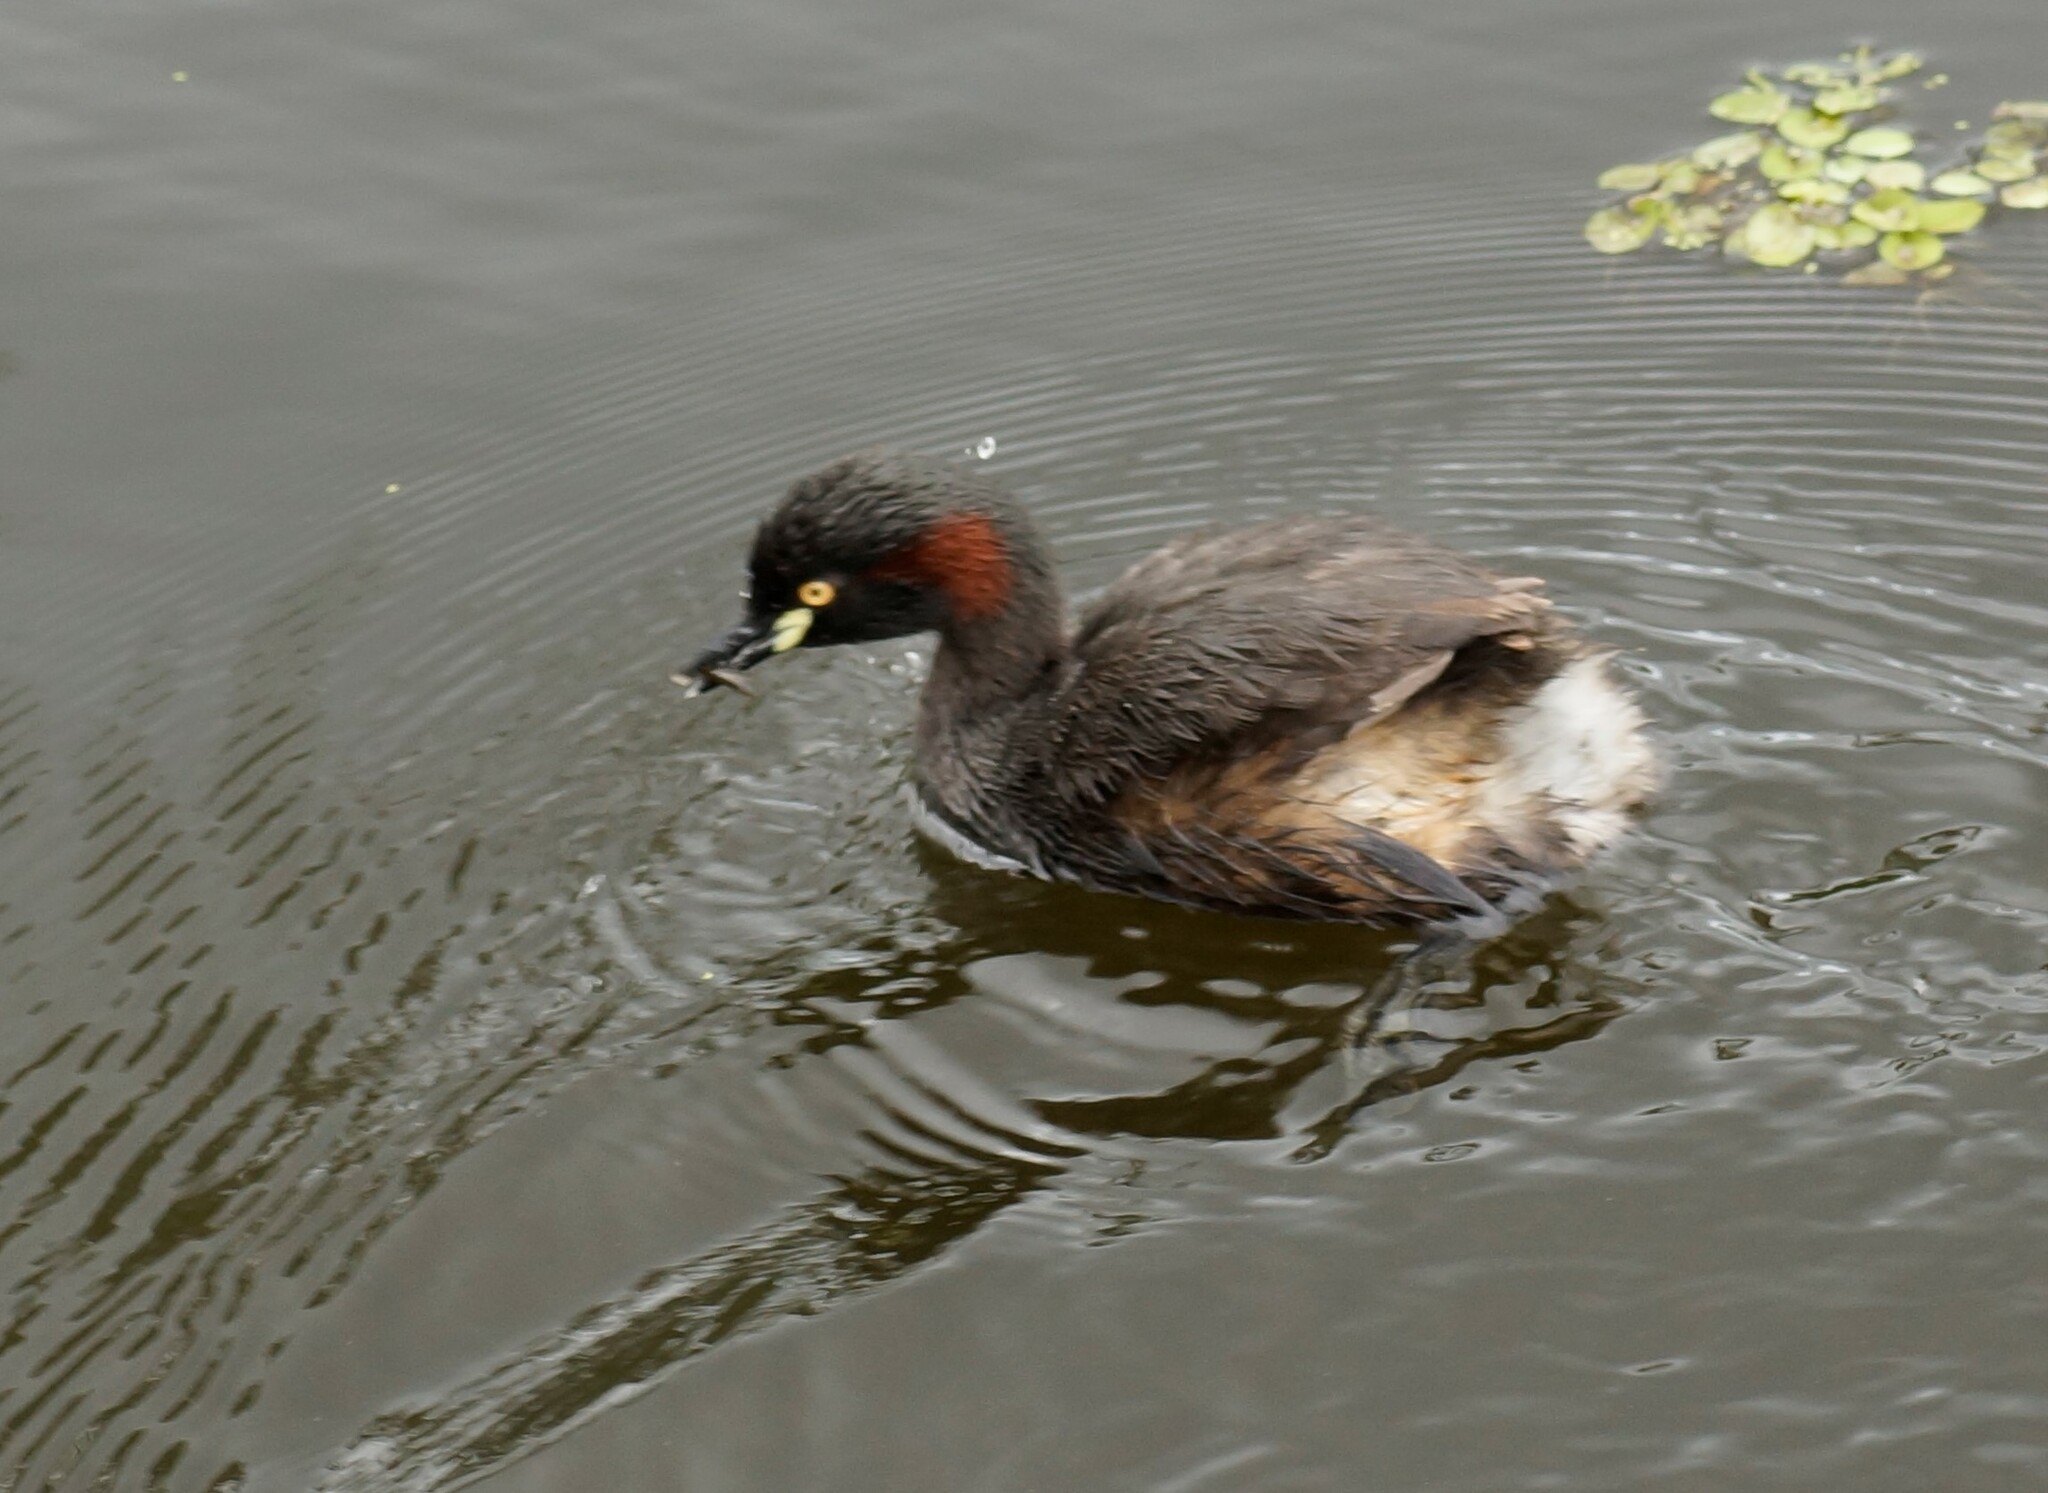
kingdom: Animalia
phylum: Chordata
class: Aves
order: Podicipediformes
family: Podicipedidae
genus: Tachybaptus
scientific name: Tachybaptus novaehollandiae
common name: Australasian grebe
